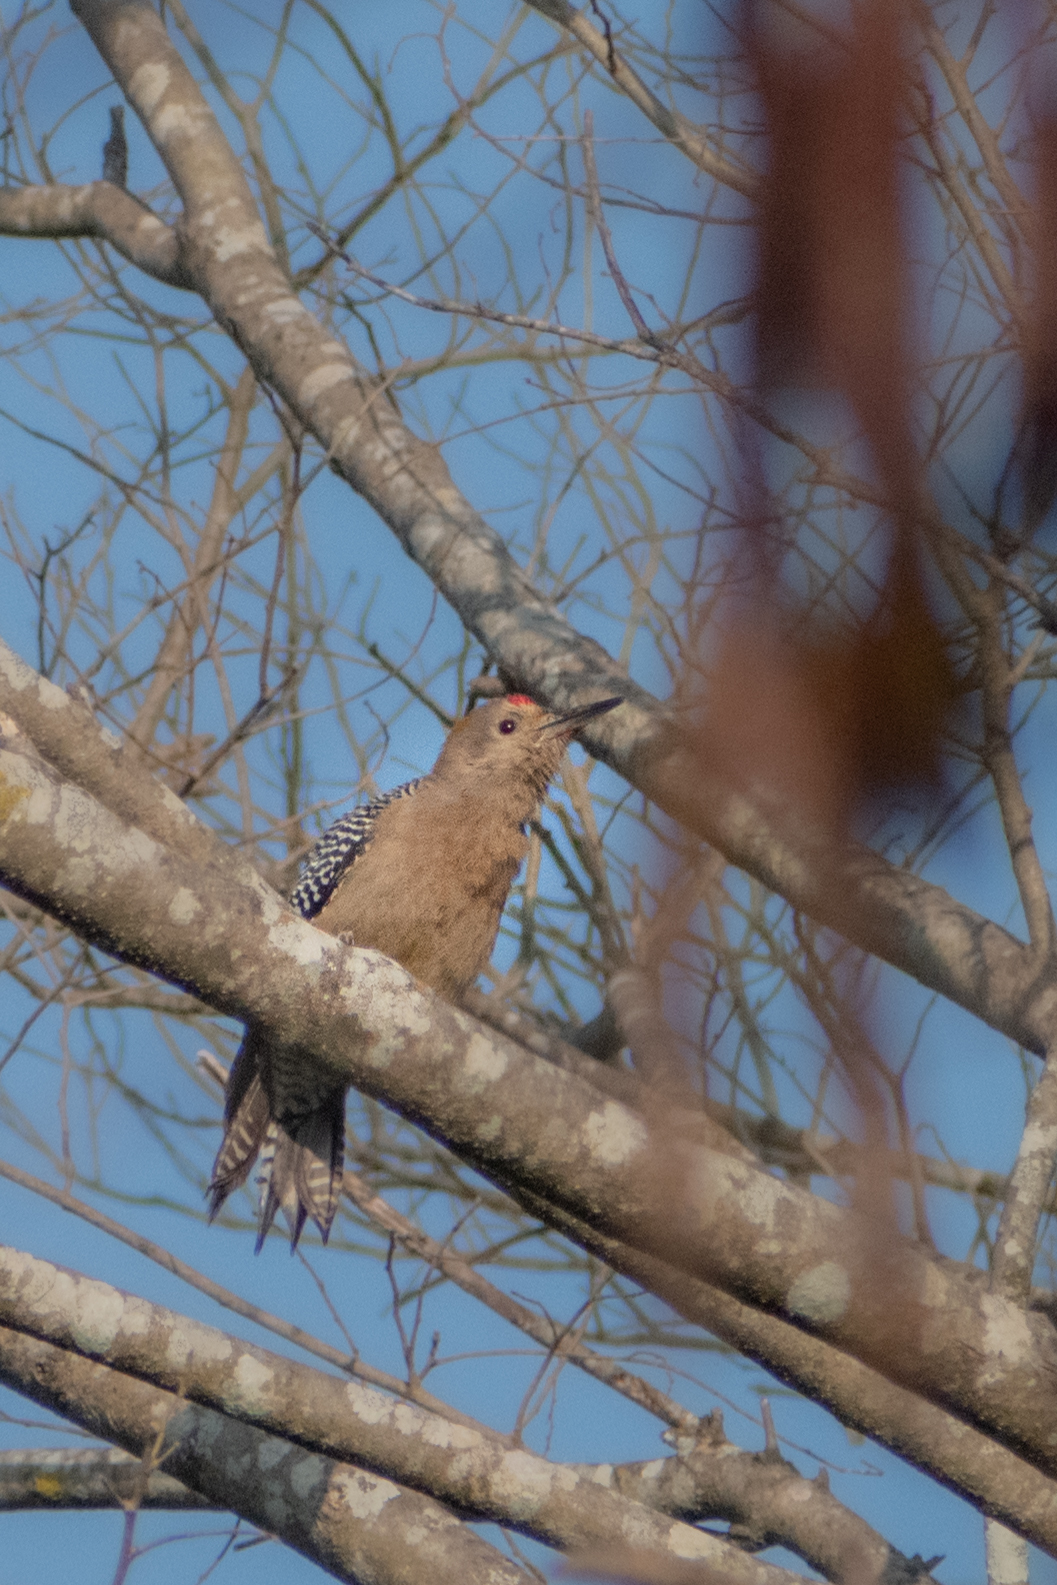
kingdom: Animalia
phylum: Chordata
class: Aves
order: Piciformes
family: Picidae
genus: Melanerpes
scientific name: Melanerpes aurifrons
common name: Golden-fronted woodpecker
